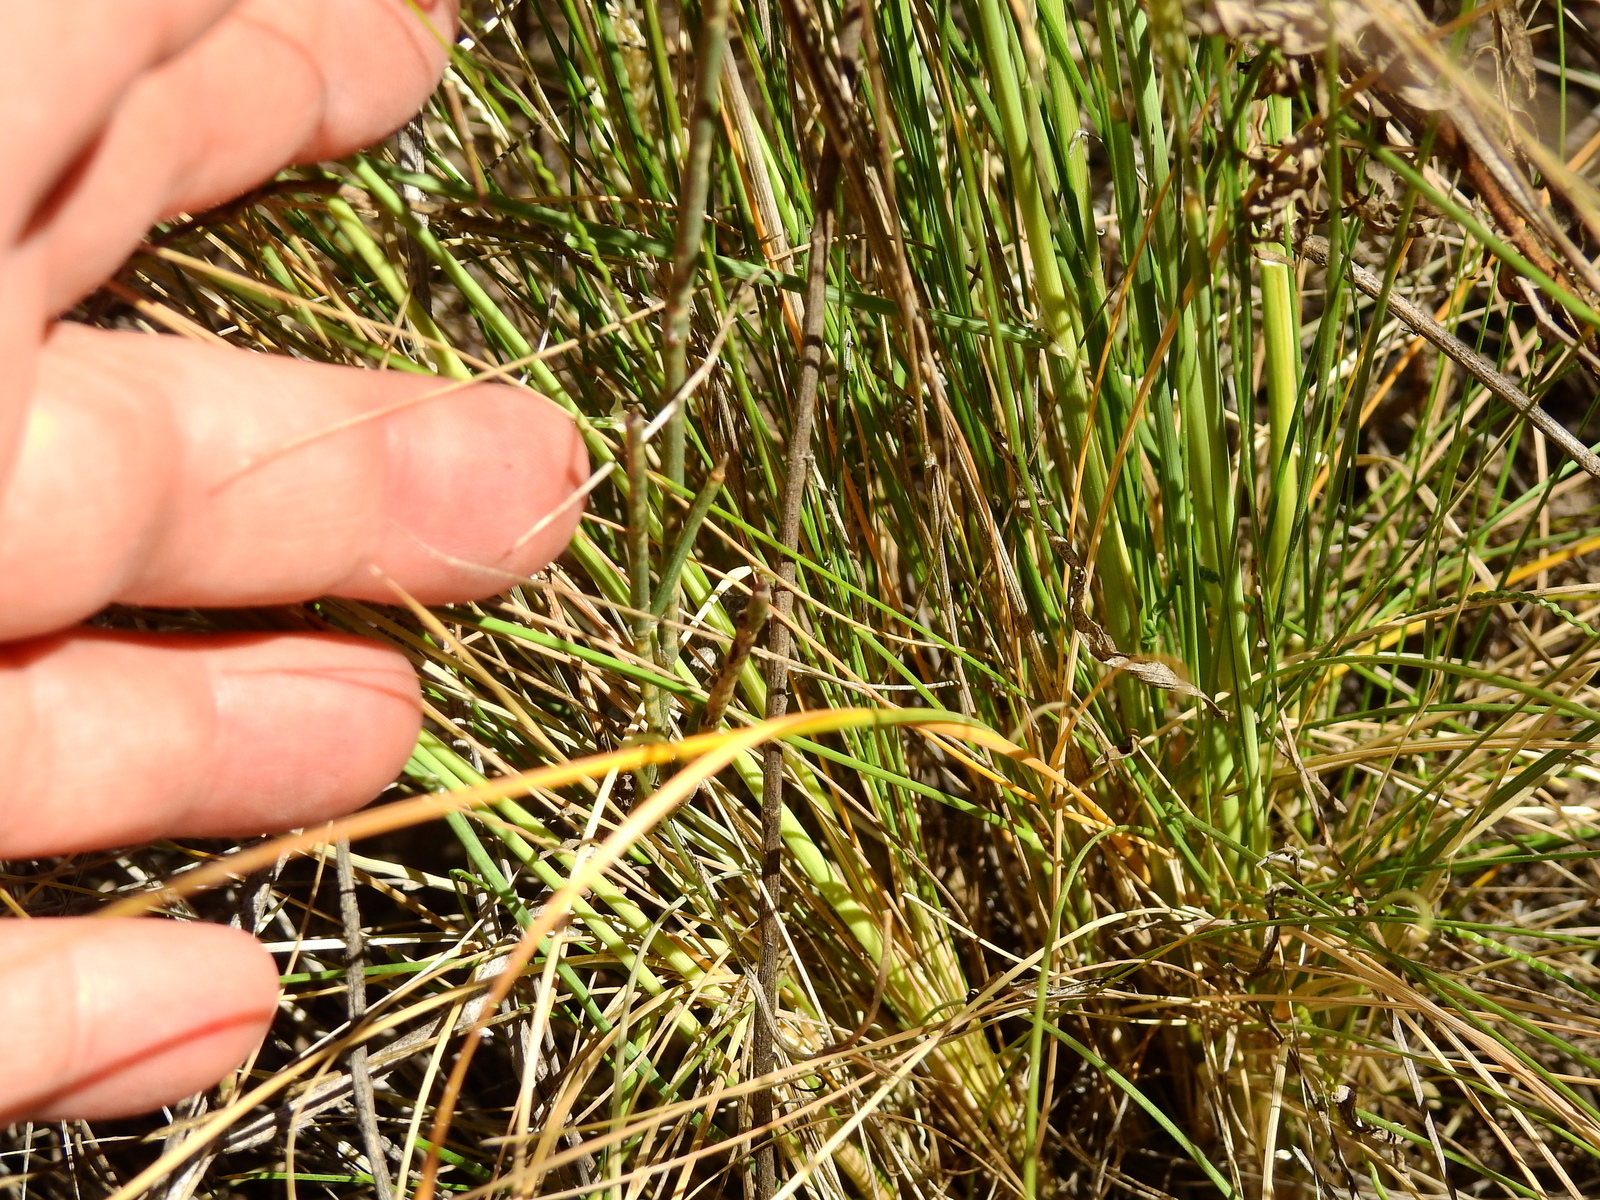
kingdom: Plantae
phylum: Tracheophyta
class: Liliopsida
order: Poales
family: Poaceae
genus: Poa
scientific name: Poa ligularis
